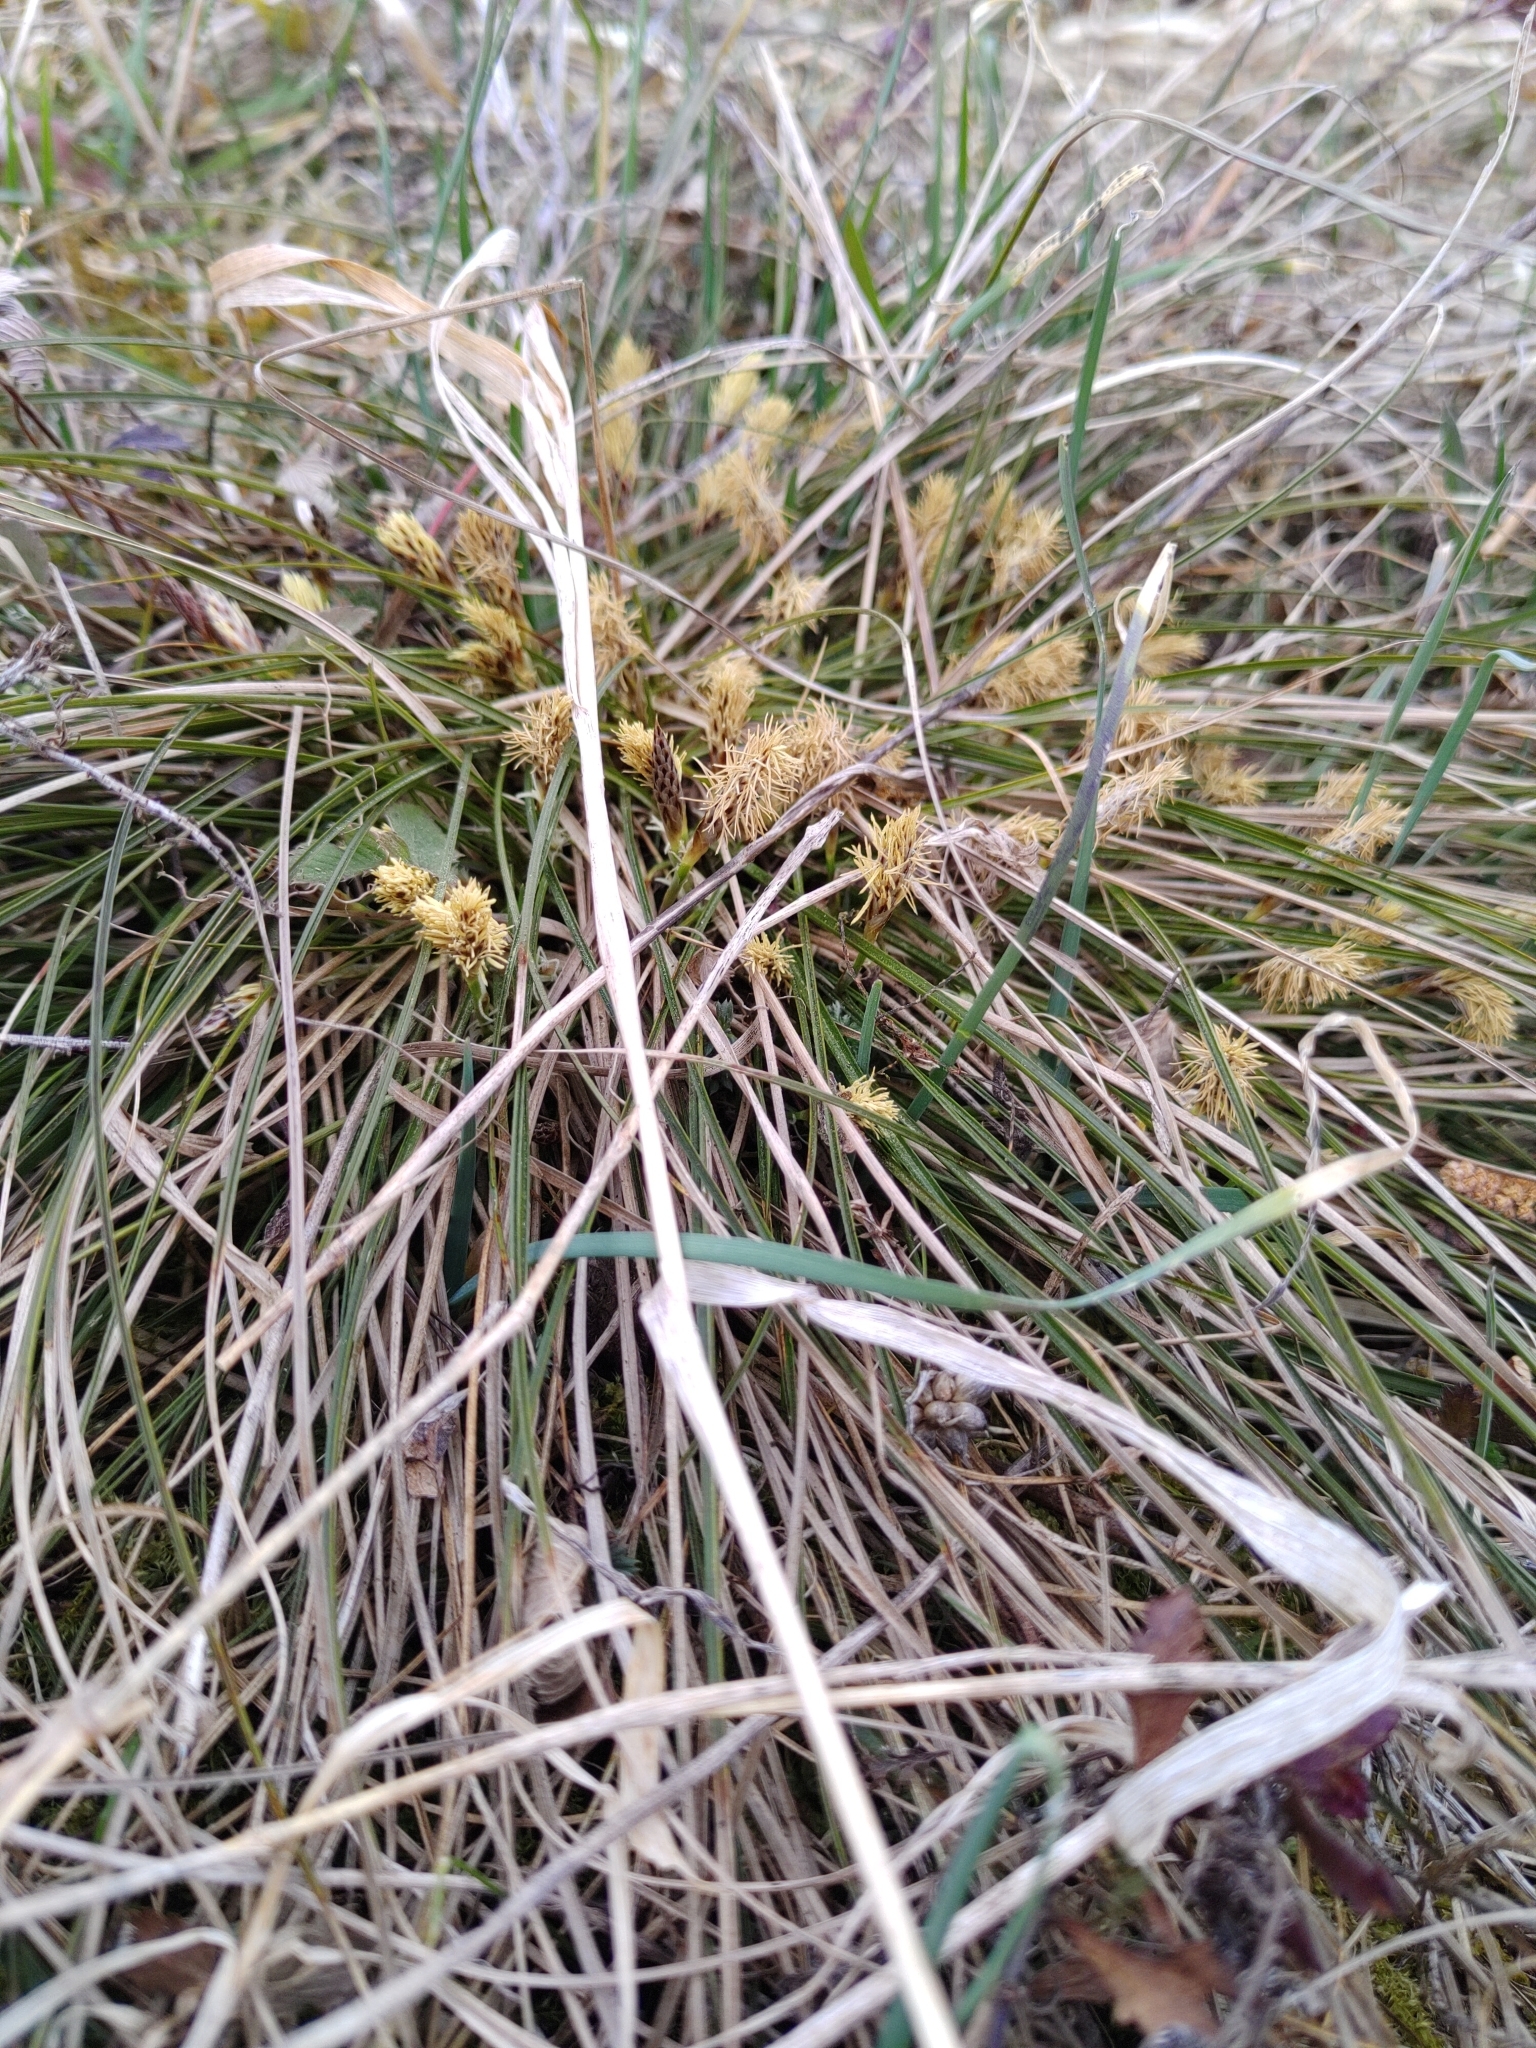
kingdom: Plantae
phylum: Tracheophyta
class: Liliopsida
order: Poales
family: Cyperaceae
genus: Carex
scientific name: Carex humilis
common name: Dwarf sedge
